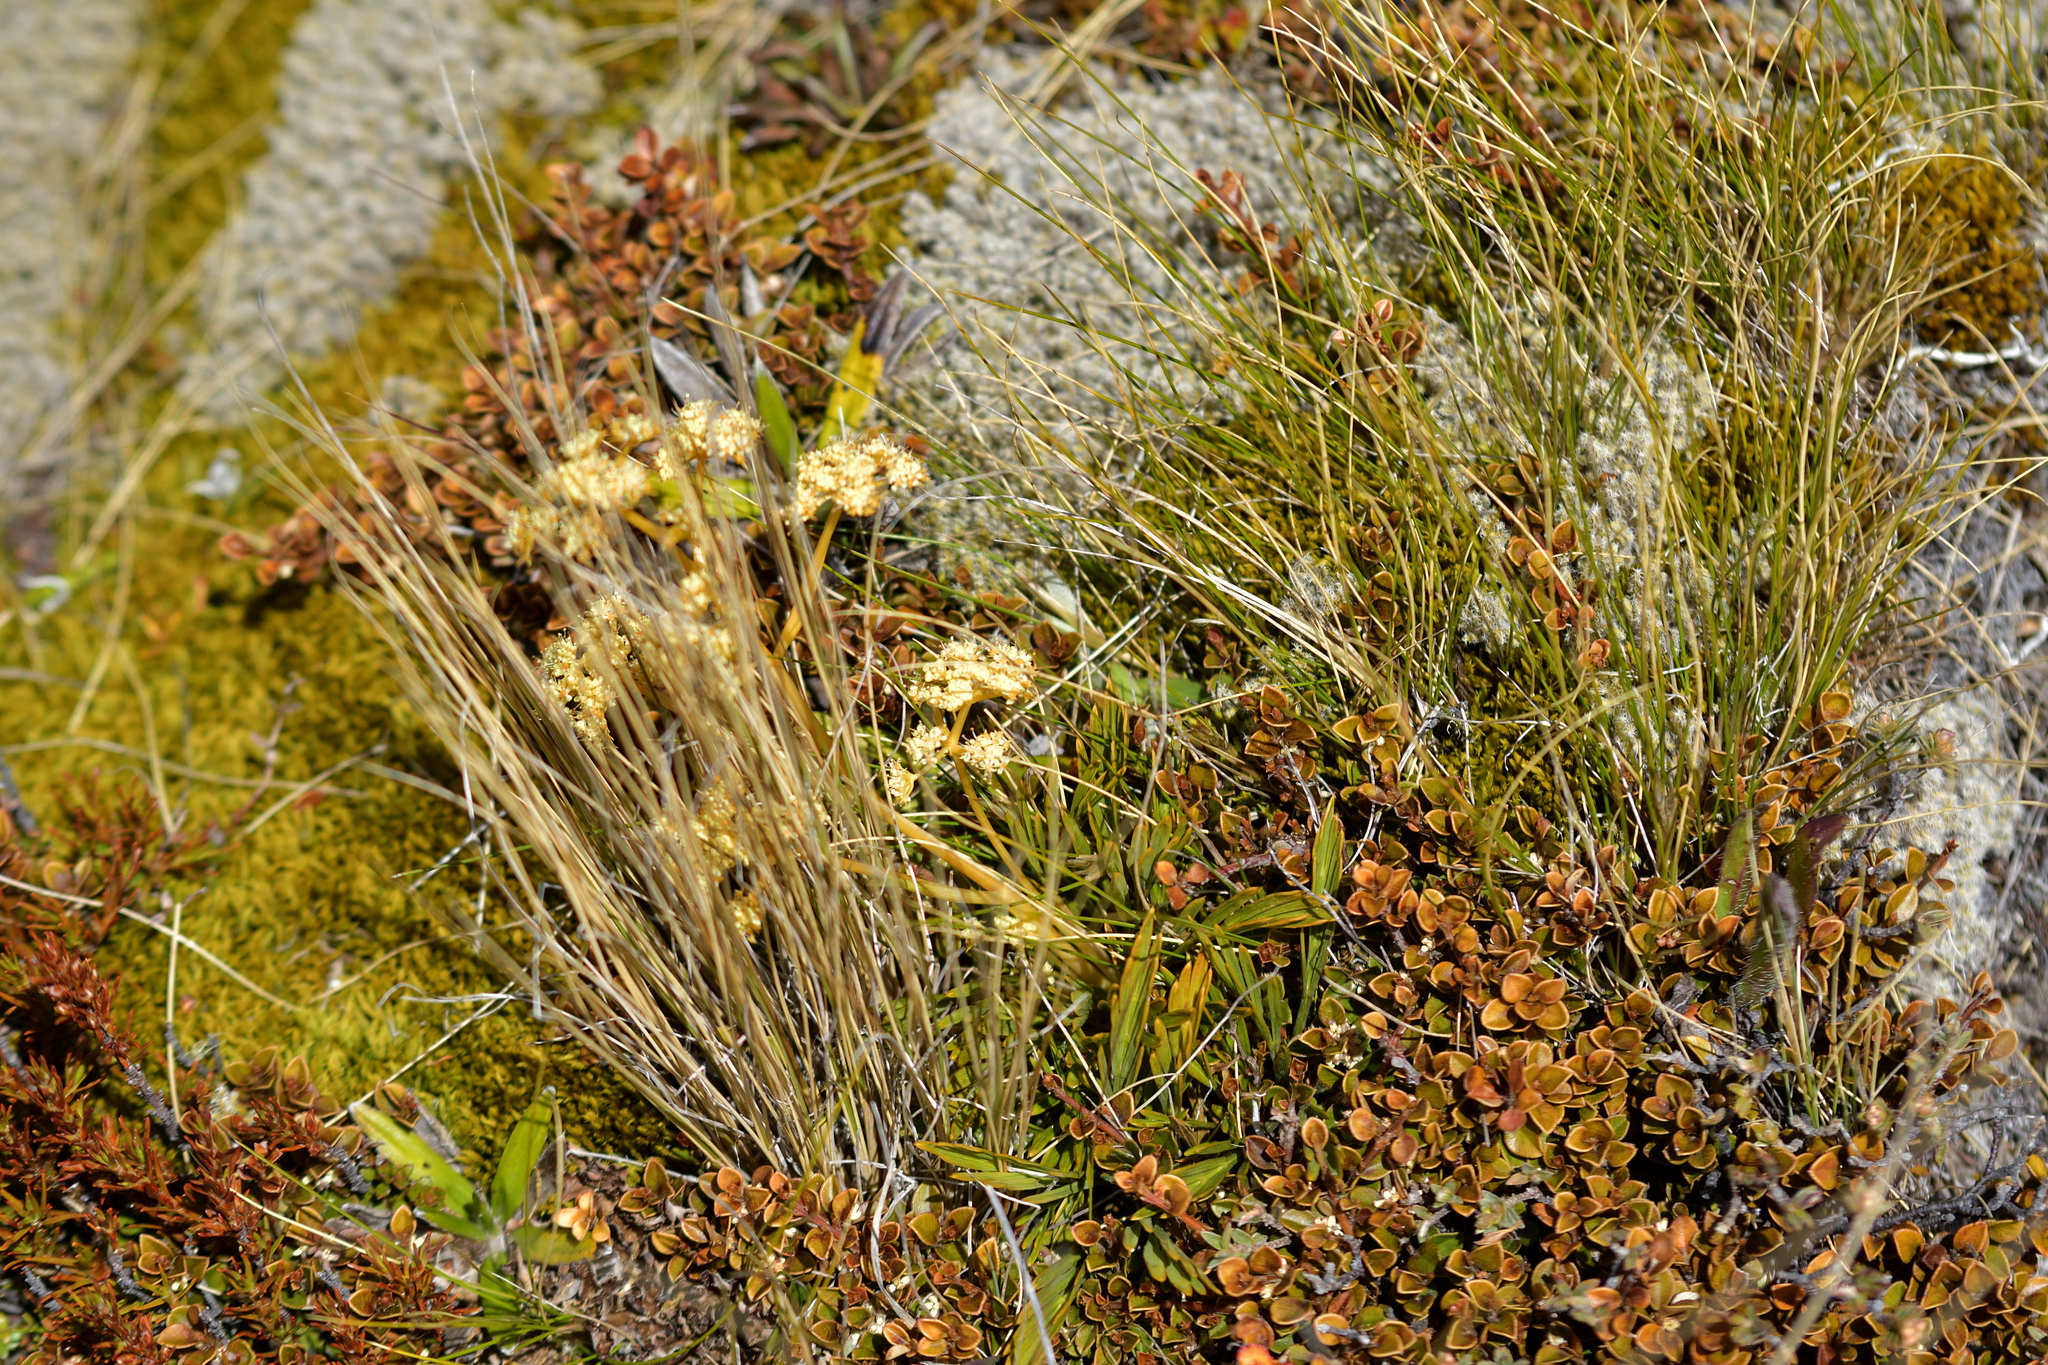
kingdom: Plantae
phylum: Tracheophyta
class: Magnoliopsida
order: Apiales
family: Apiaceae
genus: Aciphylla
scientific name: Aciphylla monroi
